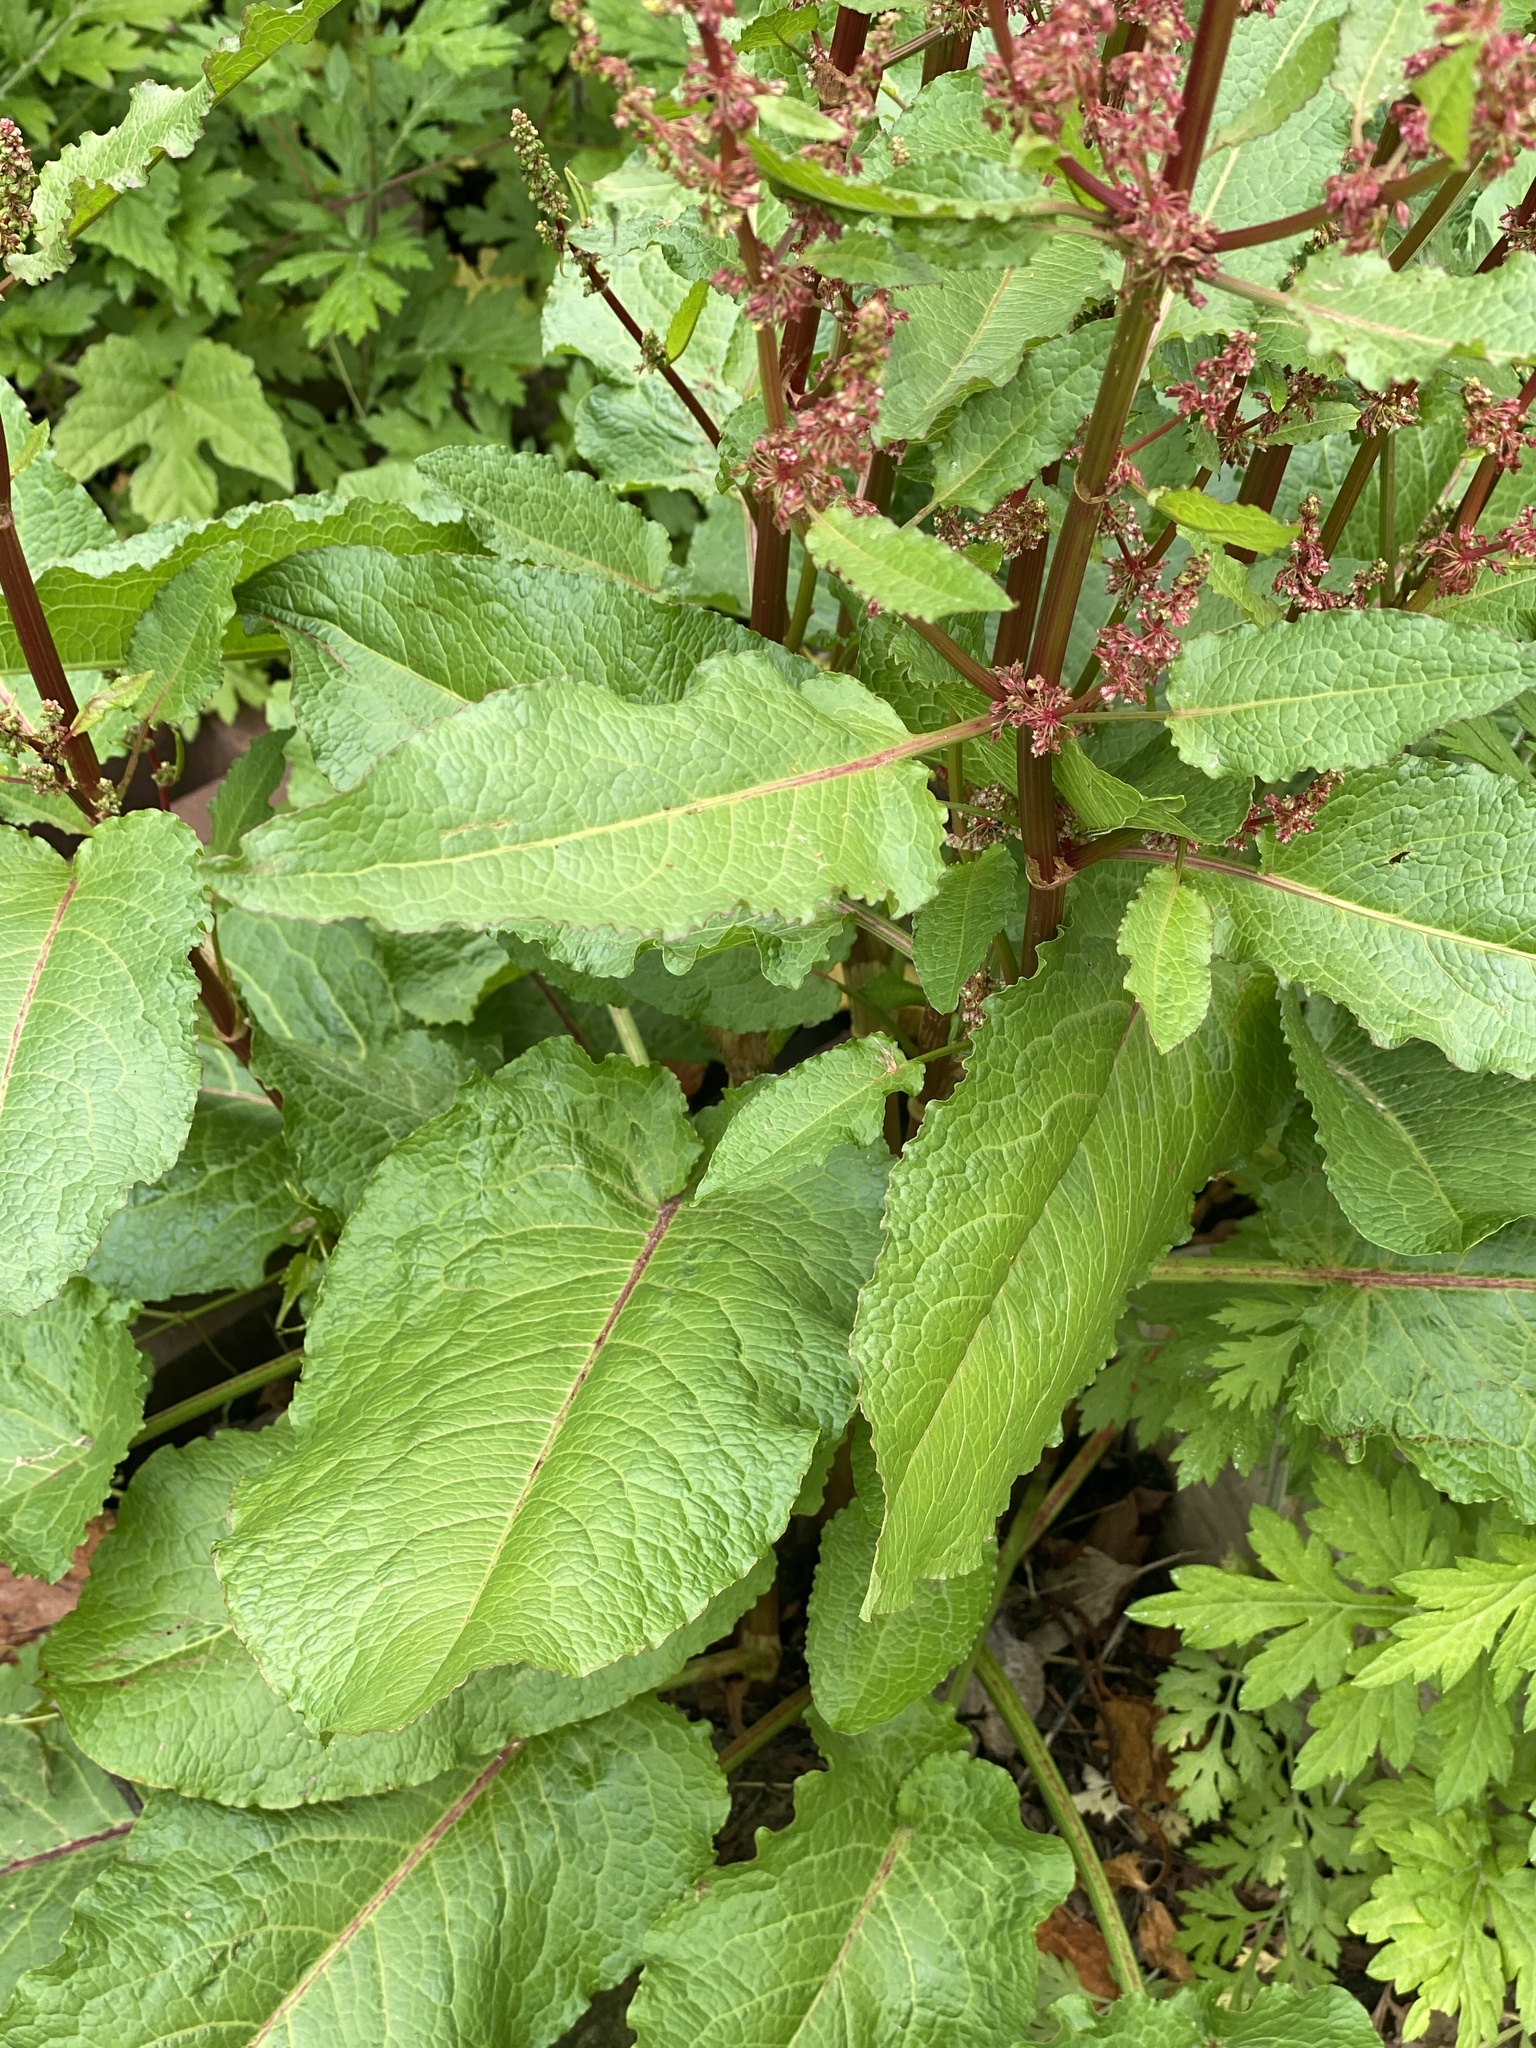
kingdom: Plantae
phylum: Tracheophyta
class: Magnoliopsida
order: Caryophyllales
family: Polygonaceae
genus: Rumex
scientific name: Rumex obtusifolius
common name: Bitter dock
